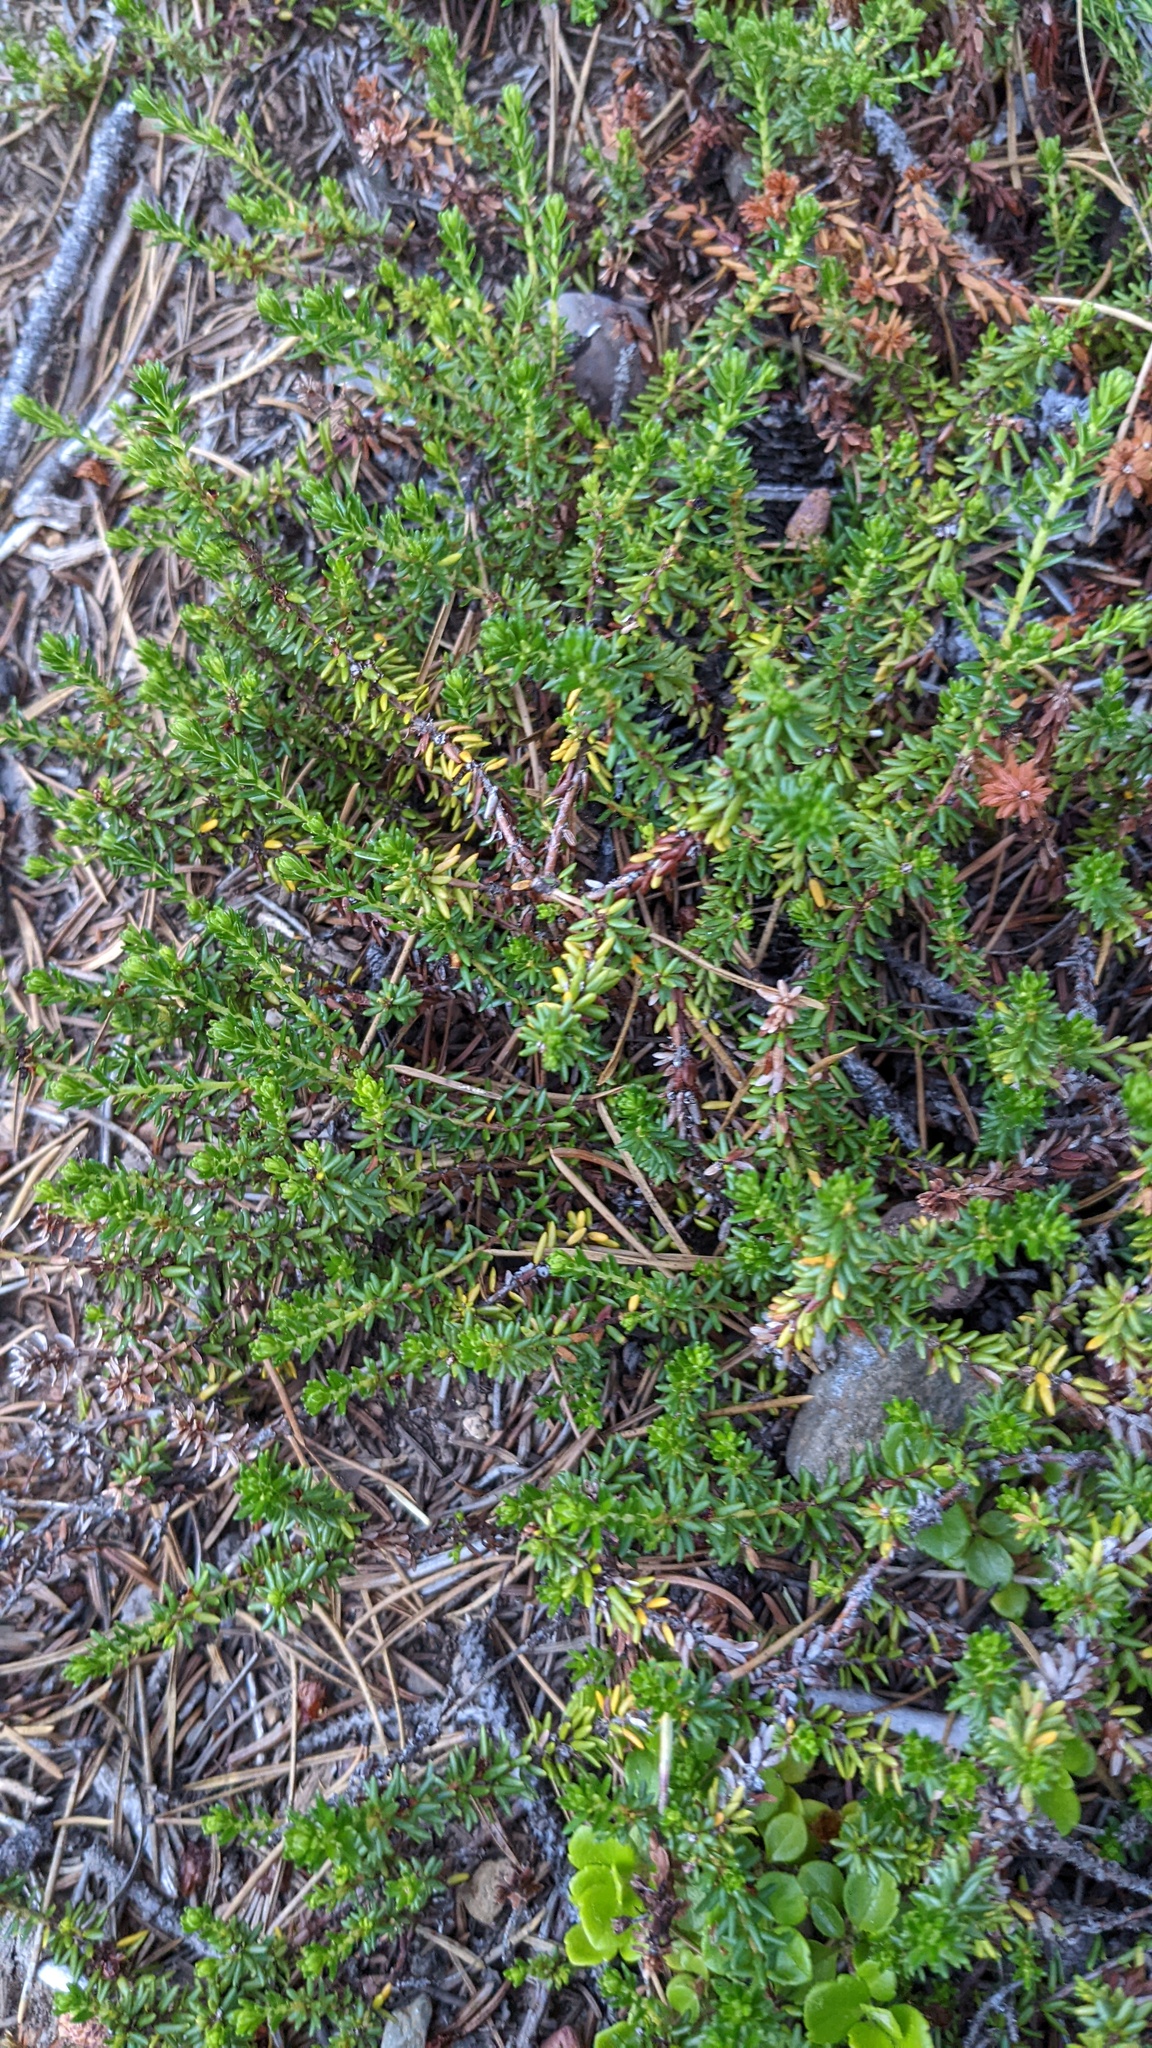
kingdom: Plantae
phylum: Tracheophyta
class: Magnoliopsida
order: Ericales
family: Ericaceae
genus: Empetrum
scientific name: Empetrum nigrum
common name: Black crowberry
